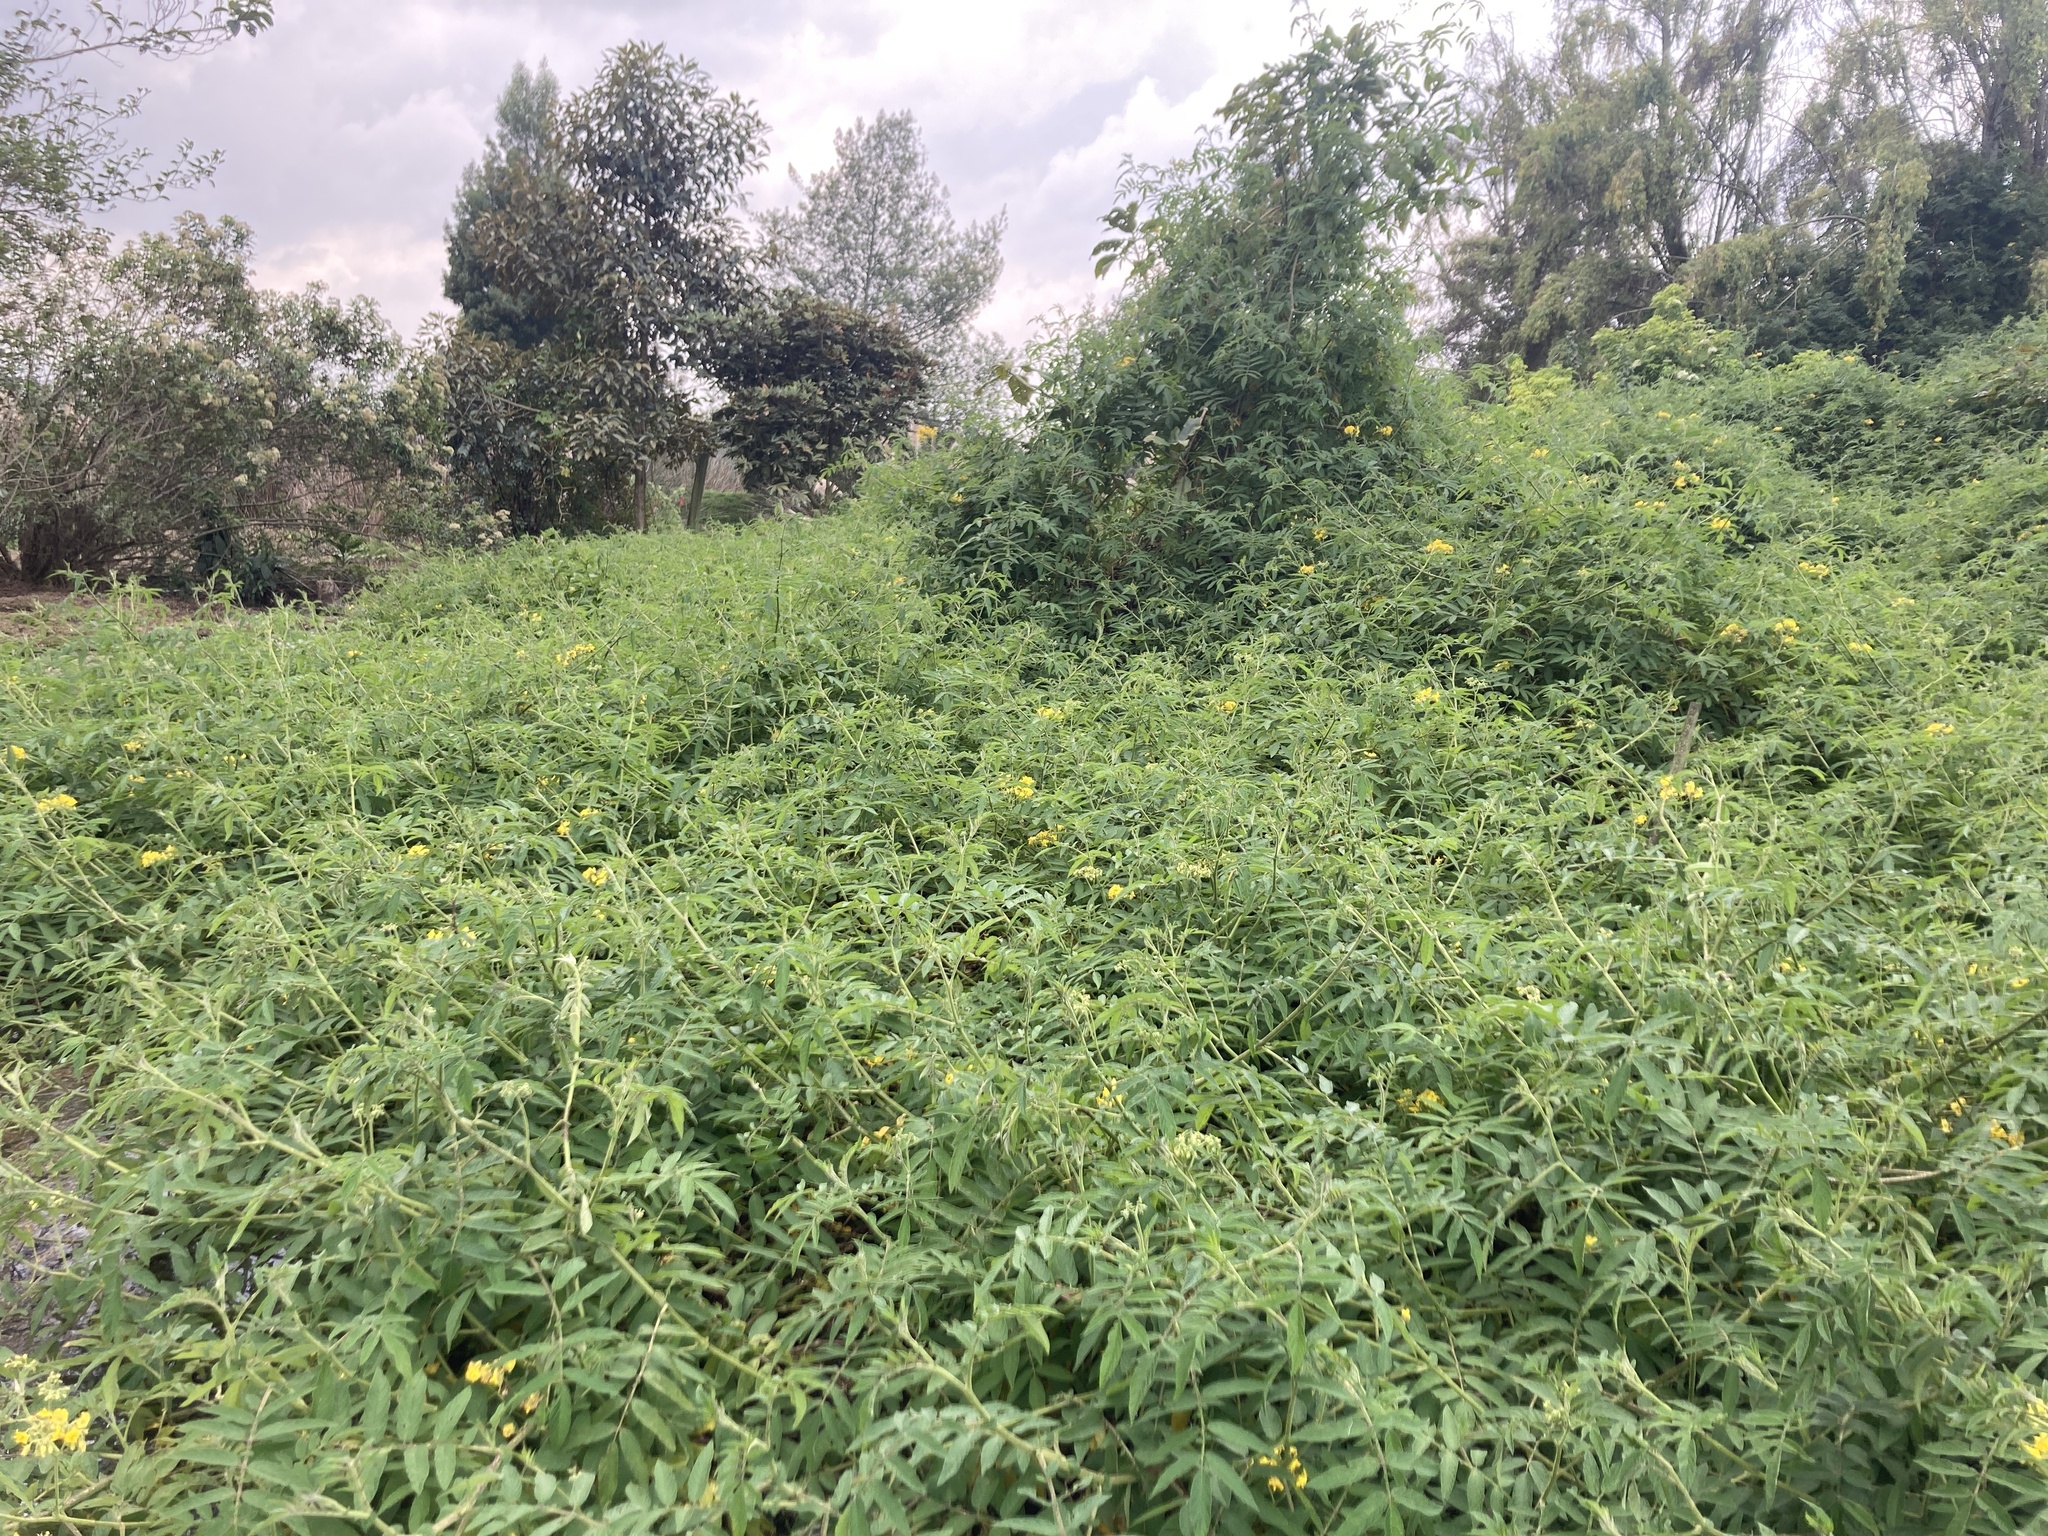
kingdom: Plantae
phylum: Tracheophyta
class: Magnoliopsida
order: Solanales
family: Solanaceae
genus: Solanum
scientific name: Solanum ochranthum
